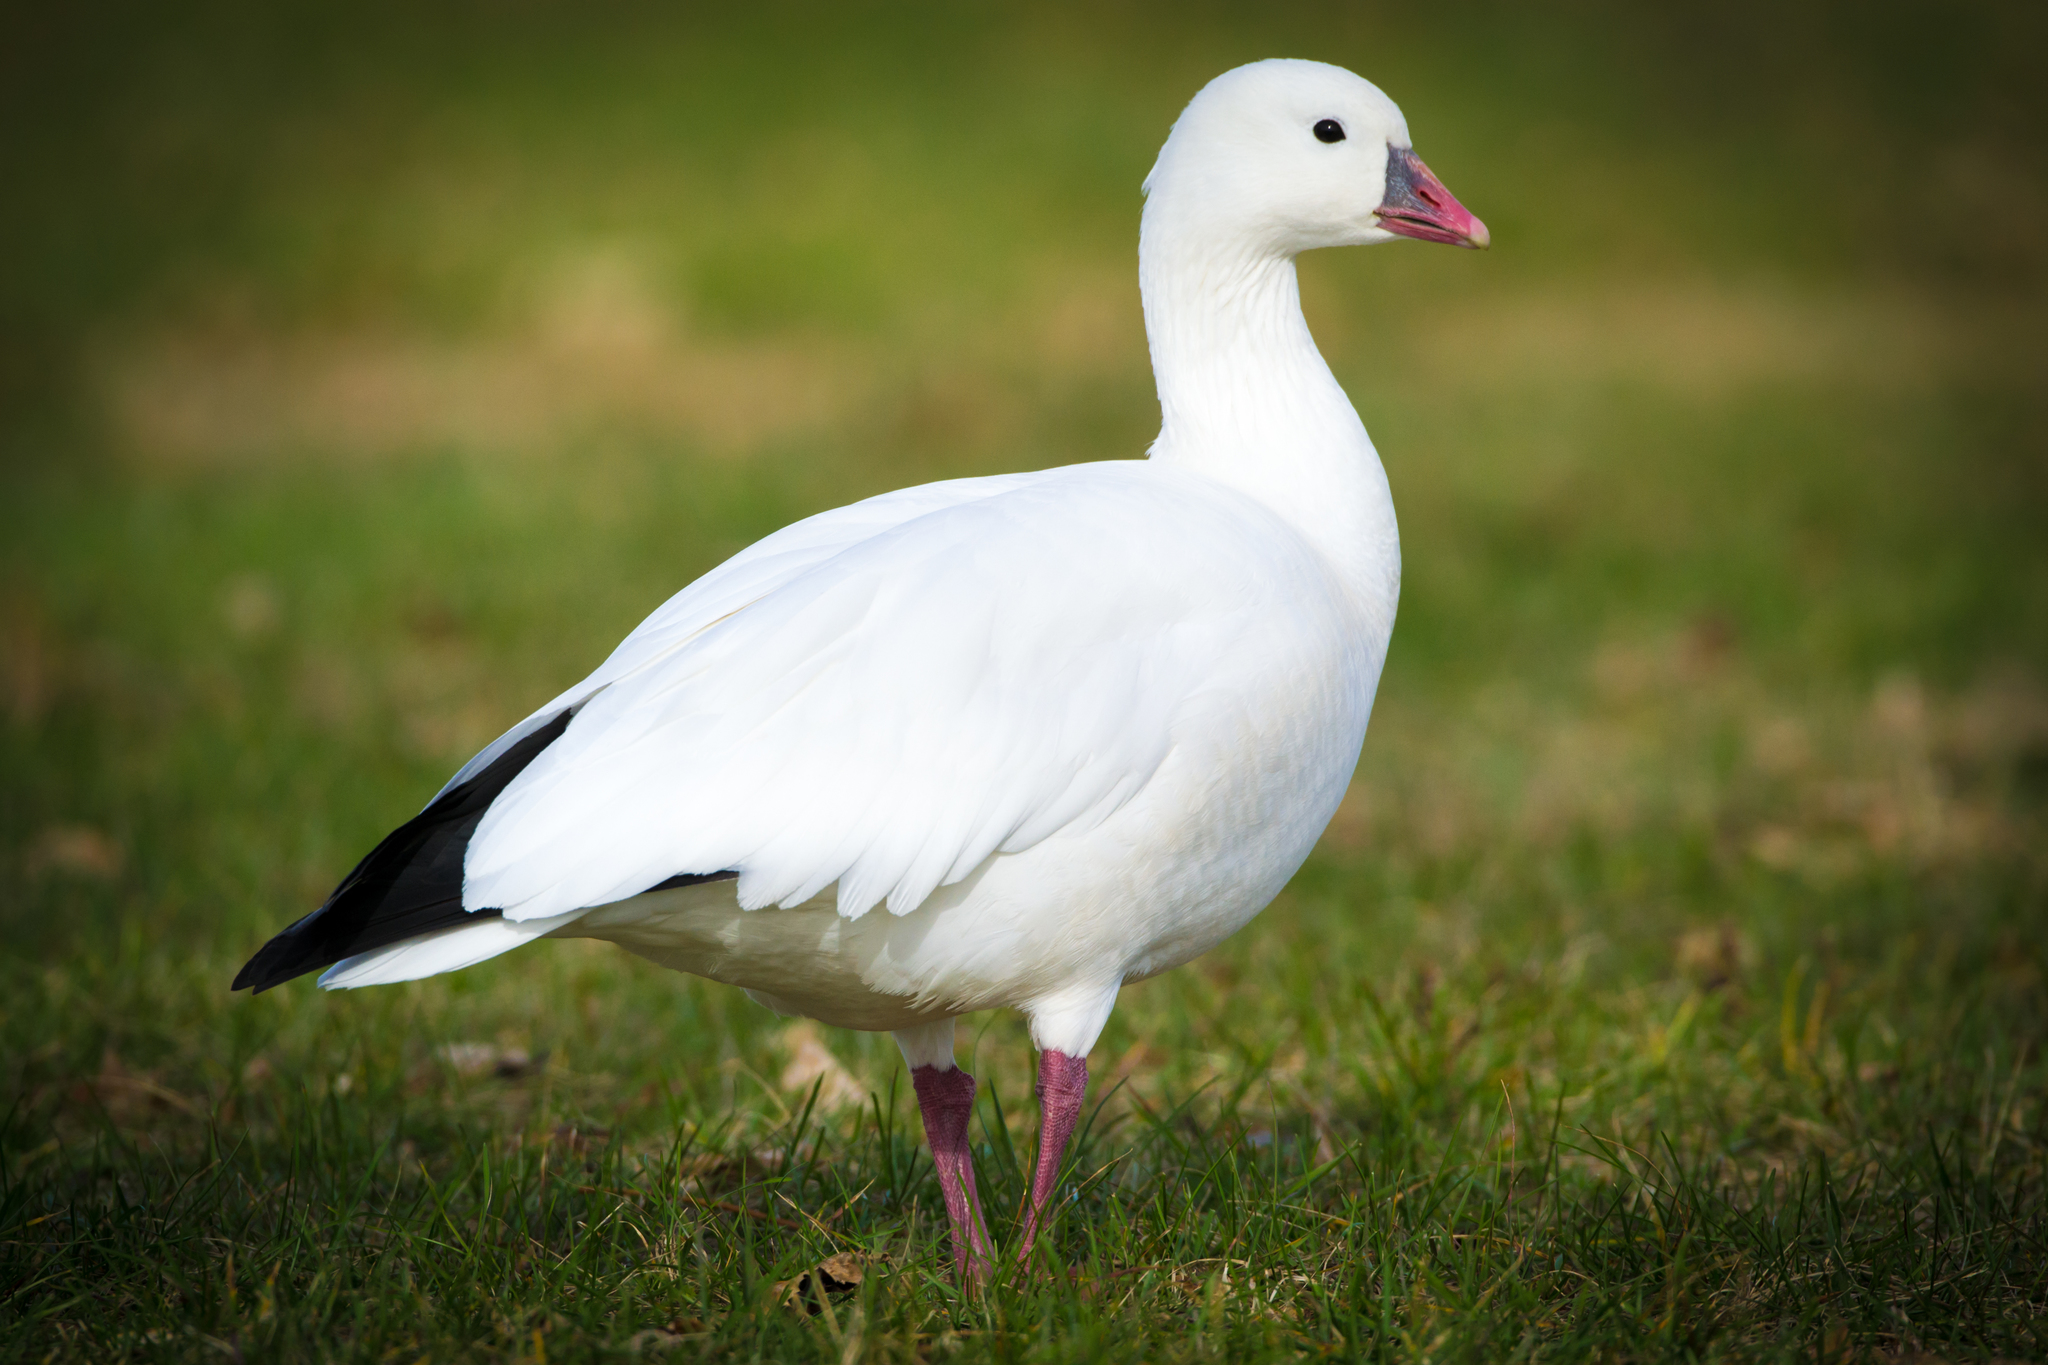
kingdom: Animalia
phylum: Chordata
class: Aves
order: Anseriformes
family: Anatidae
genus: Anser
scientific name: Anser rossii
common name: Ross's goose
